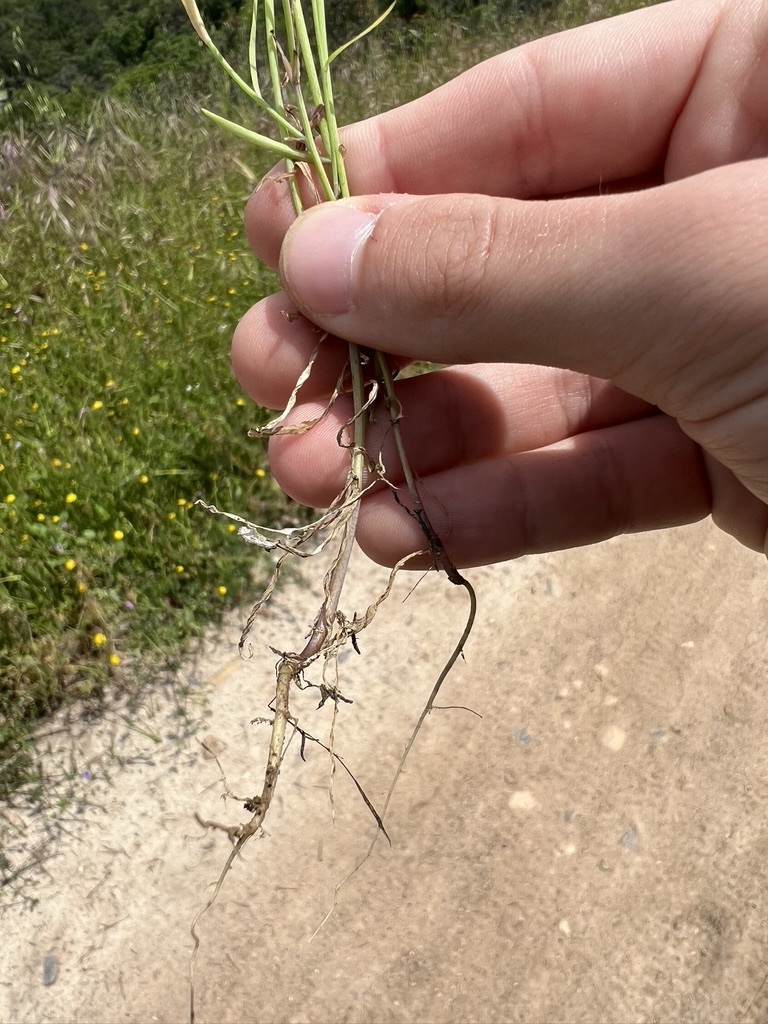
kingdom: Plantae
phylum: Tracheophyta
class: Magnoliopsida
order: Brassicales
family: Brassicaceae
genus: Thysanocarpus
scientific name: Thysanocarpus laciniatus
